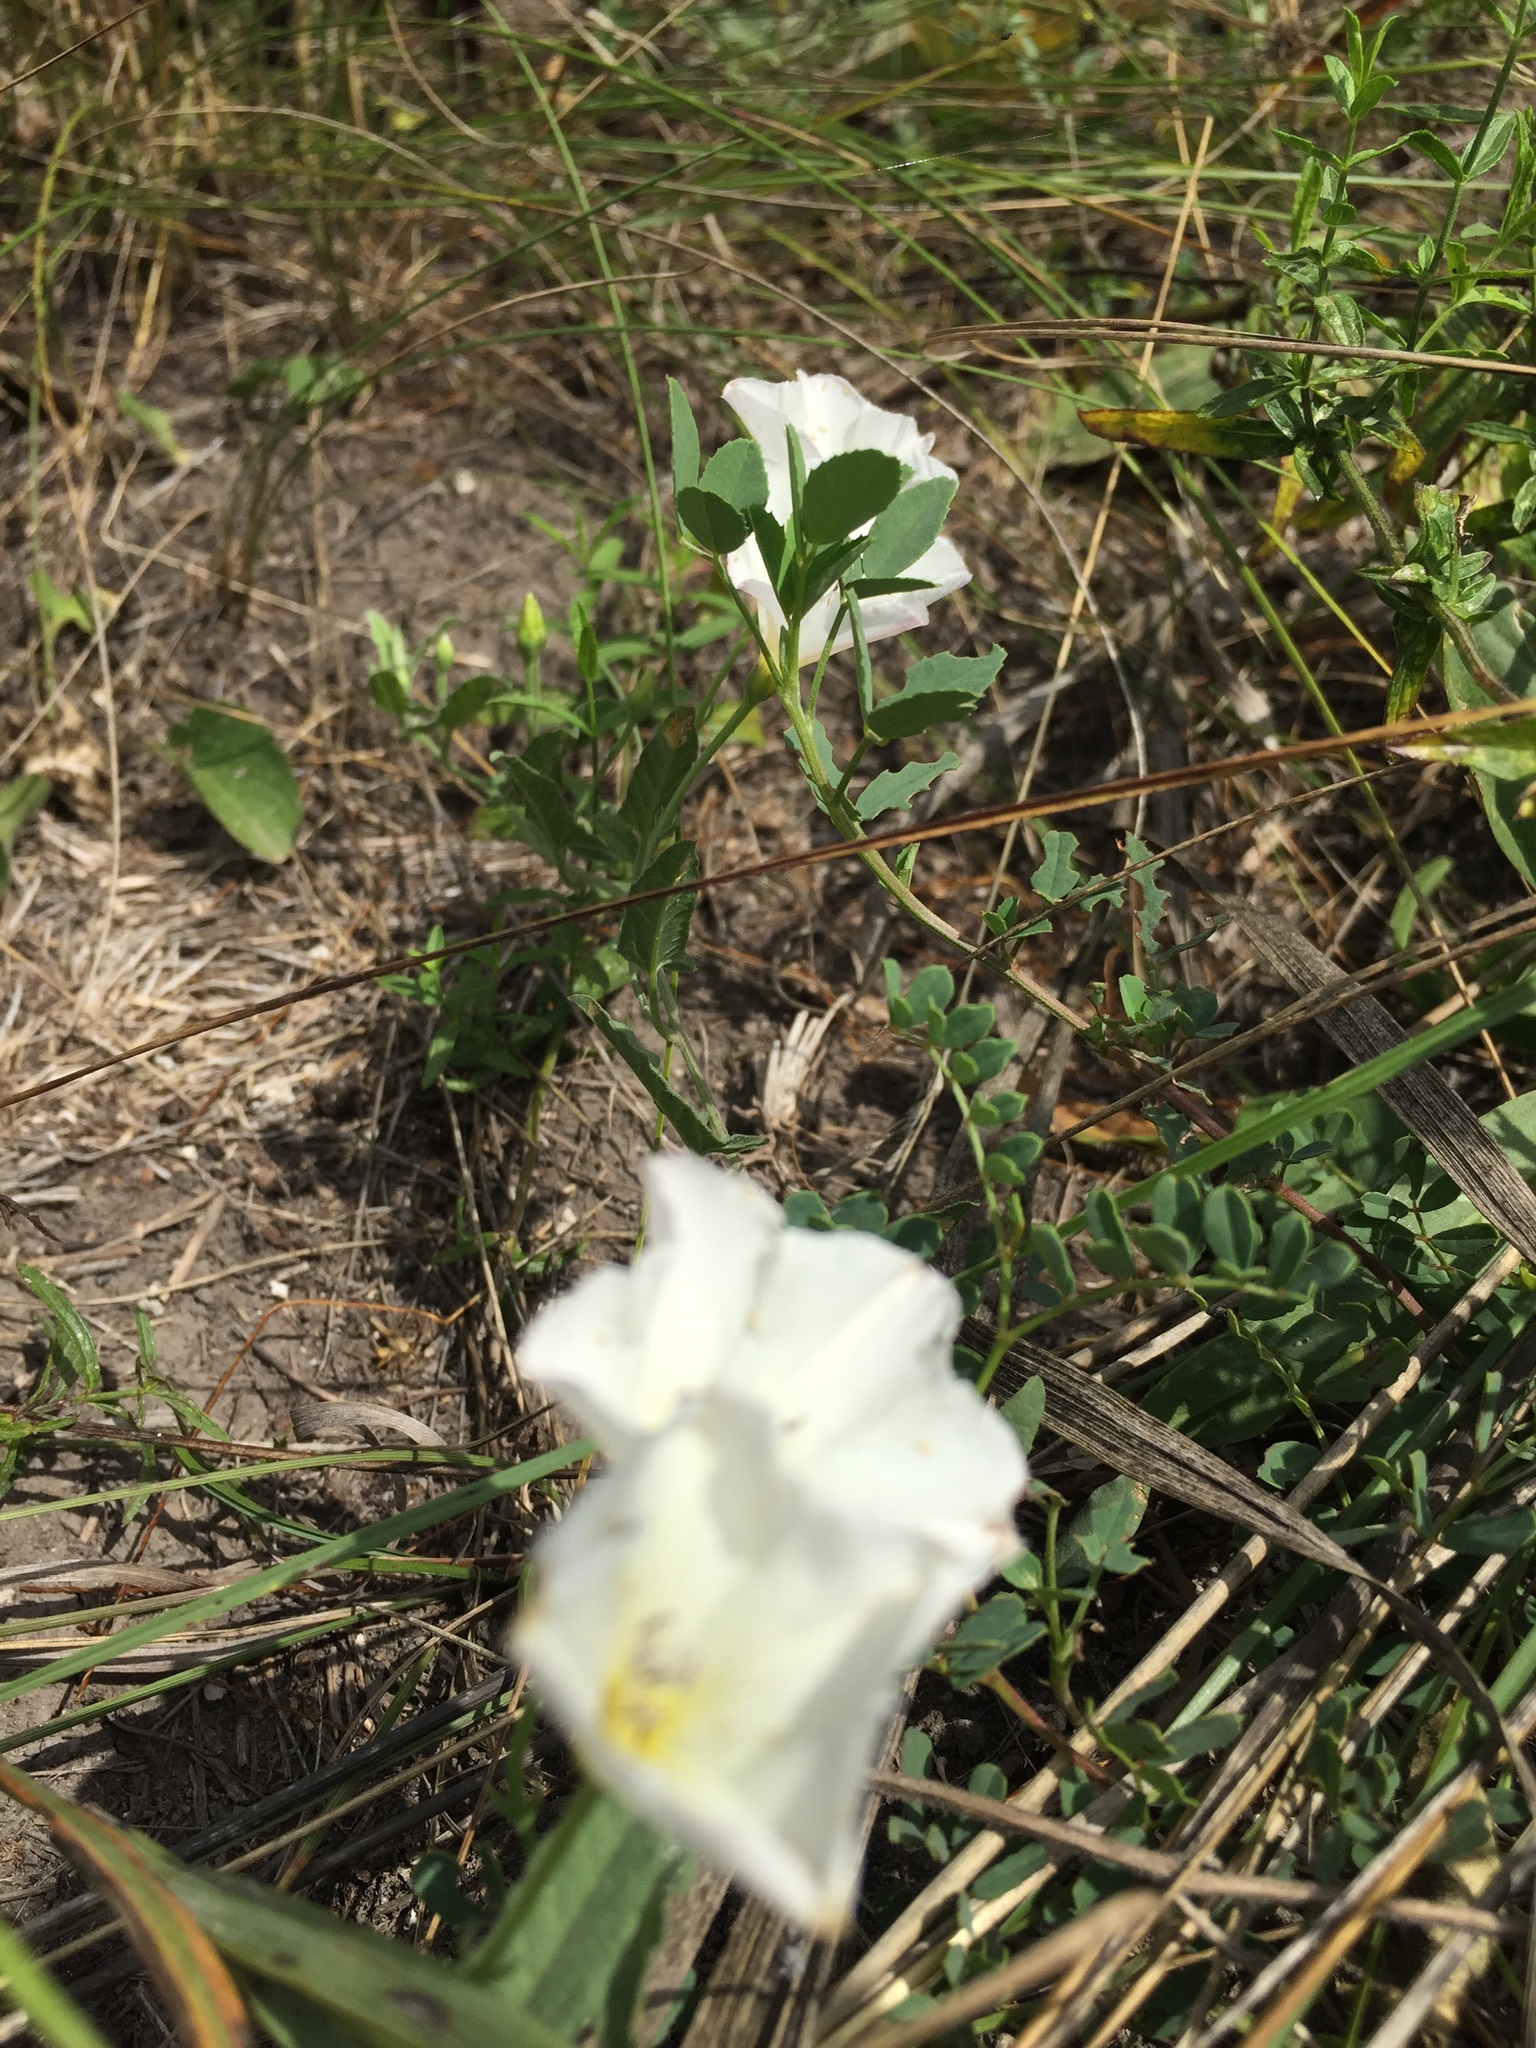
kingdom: Plantae
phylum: Tracheophyta
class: Magnoliopsida
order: Solanales
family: Convolvulaceae
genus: Convolvulus
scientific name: Convolvulus arvensis
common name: Field bindweed
